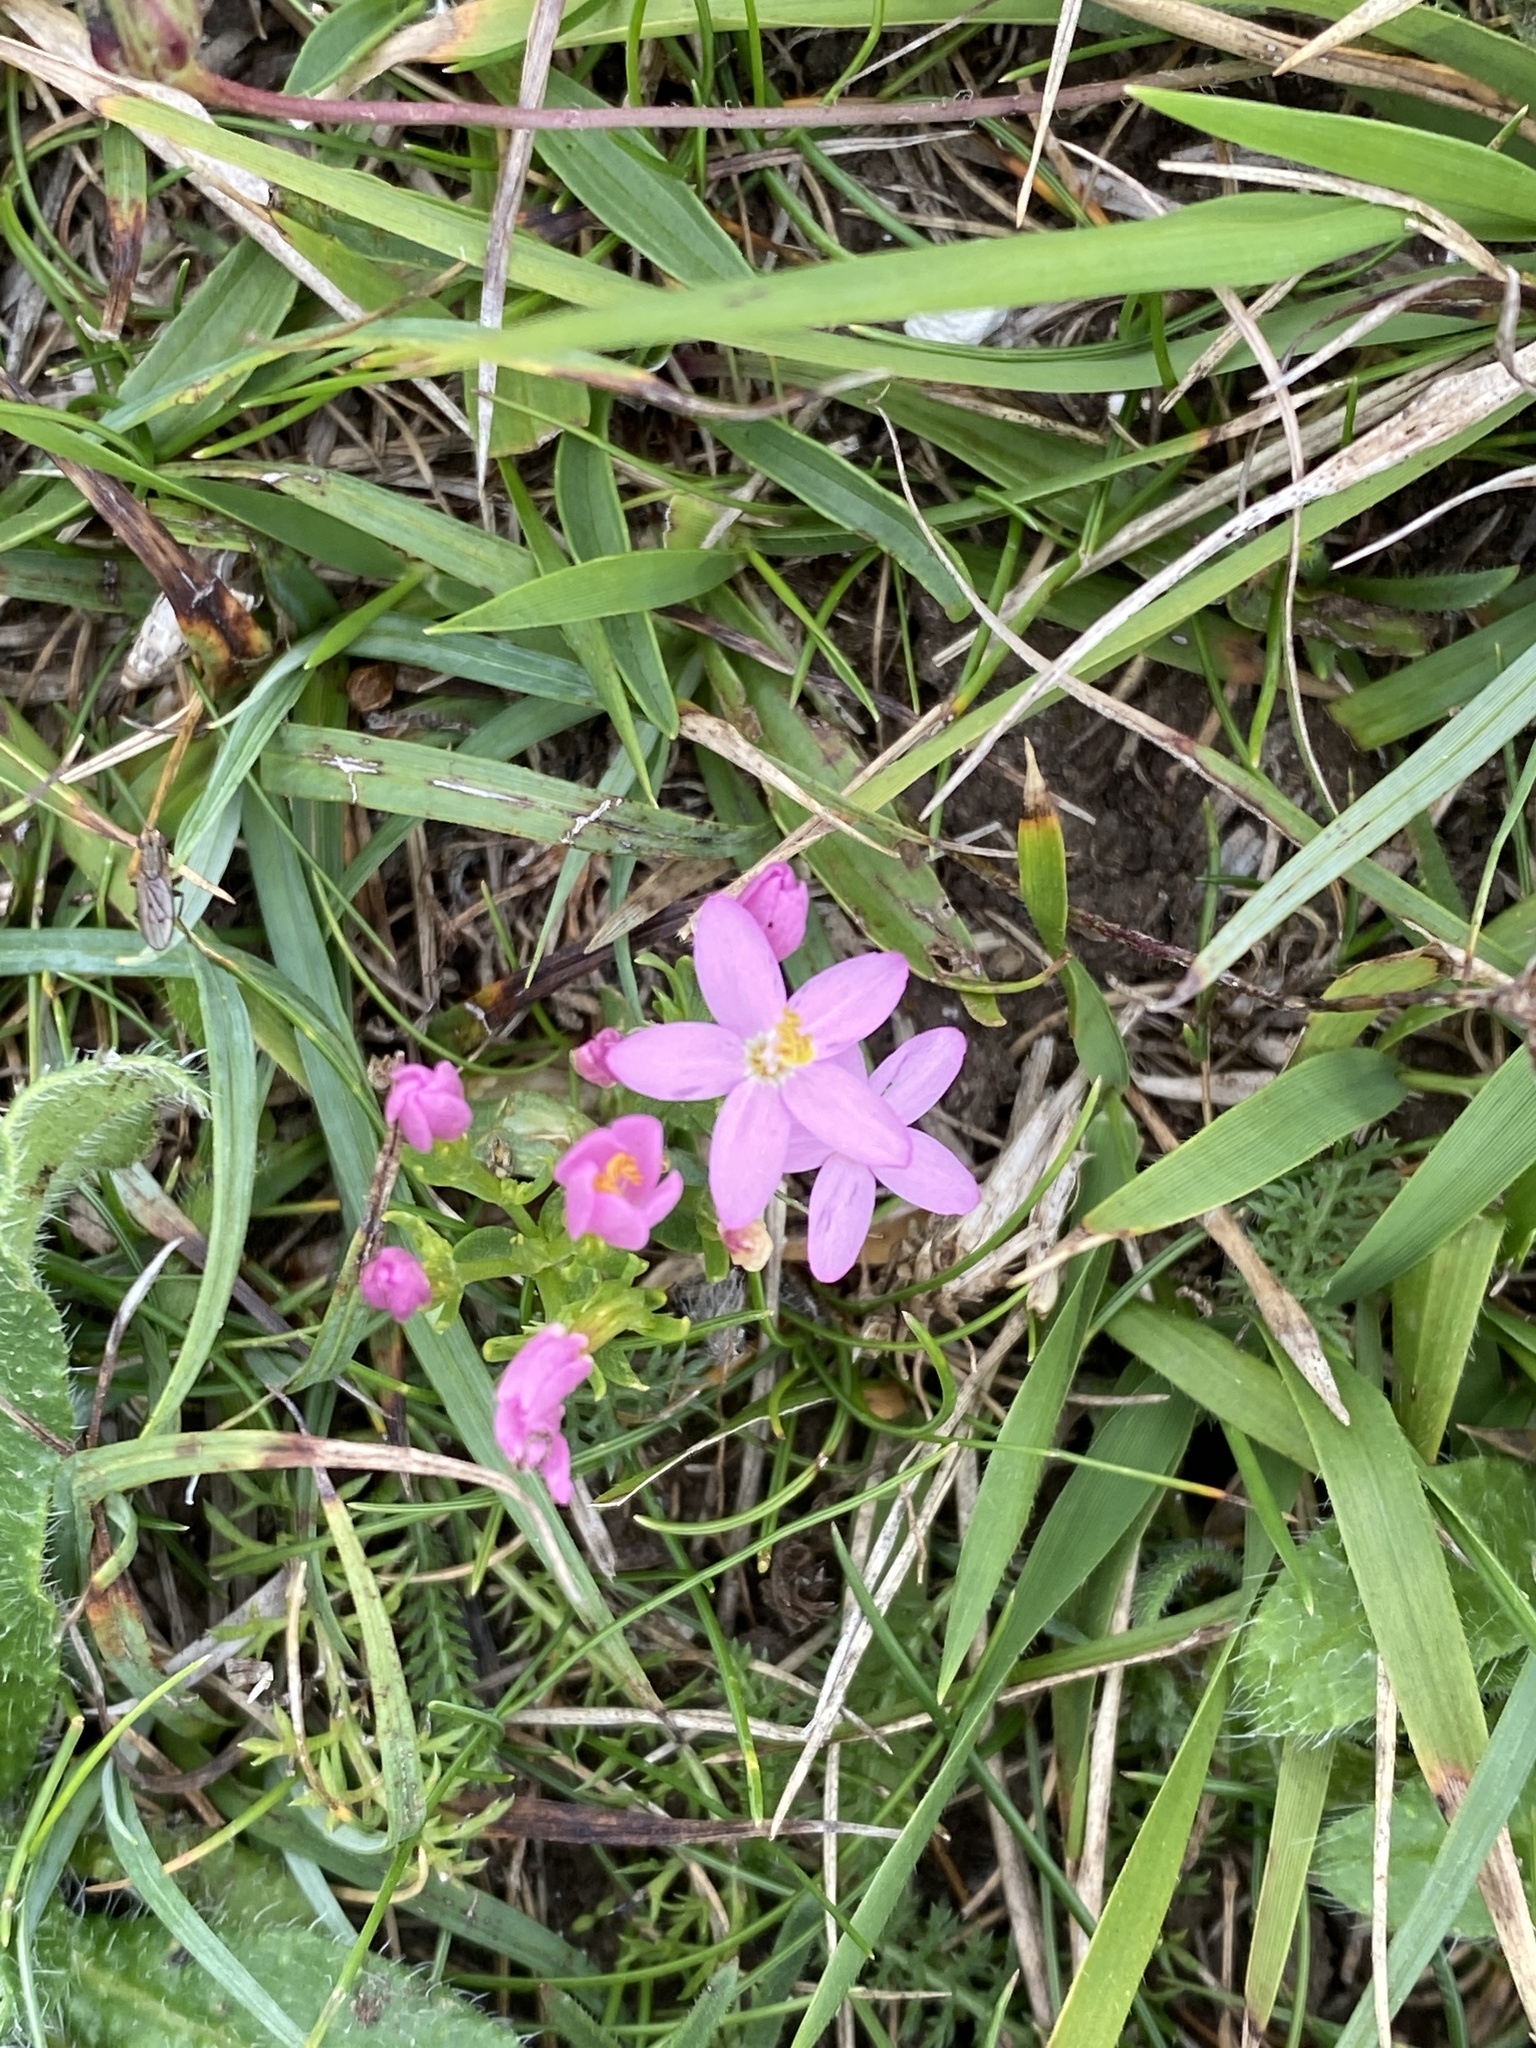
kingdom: Plantae
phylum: Tracheophyta
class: Magnoliopsida
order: Gentianales
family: Gentianaceae
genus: Centaurium
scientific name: Centaurium erythraea
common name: Common centaury
